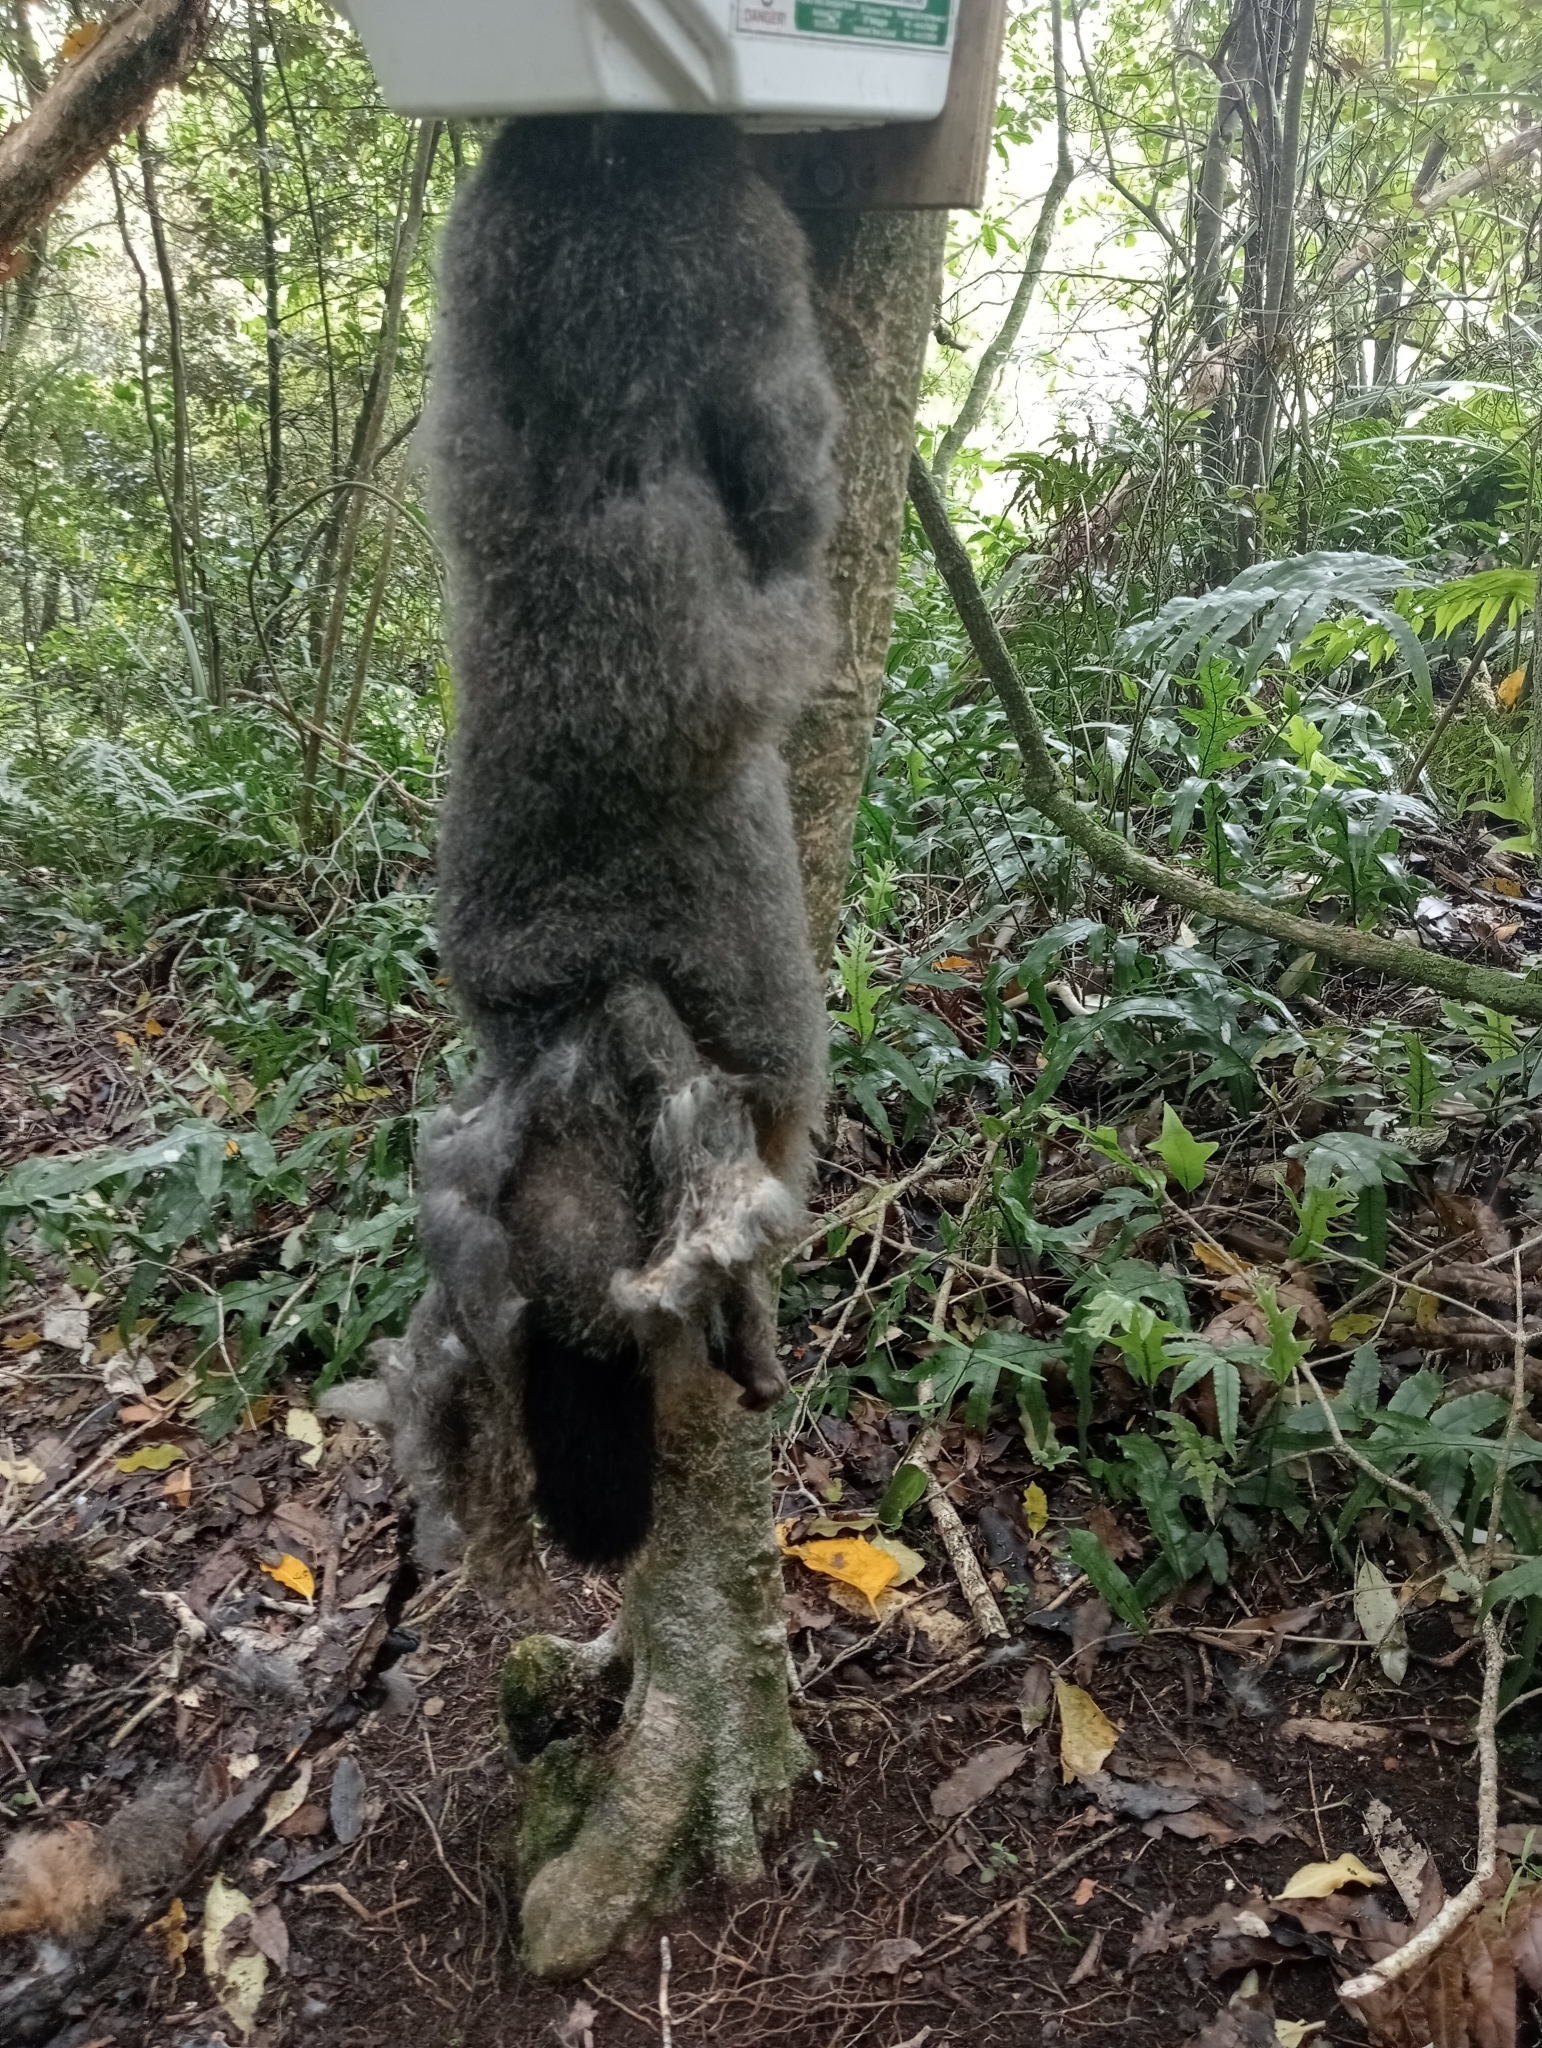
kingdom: Animalia
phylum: Chordata
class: Mammalia
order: Diprotodontia
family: Phalangeridae
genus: Trichosurus
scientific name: Trichosurus vulpecula
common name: Common brushtail
